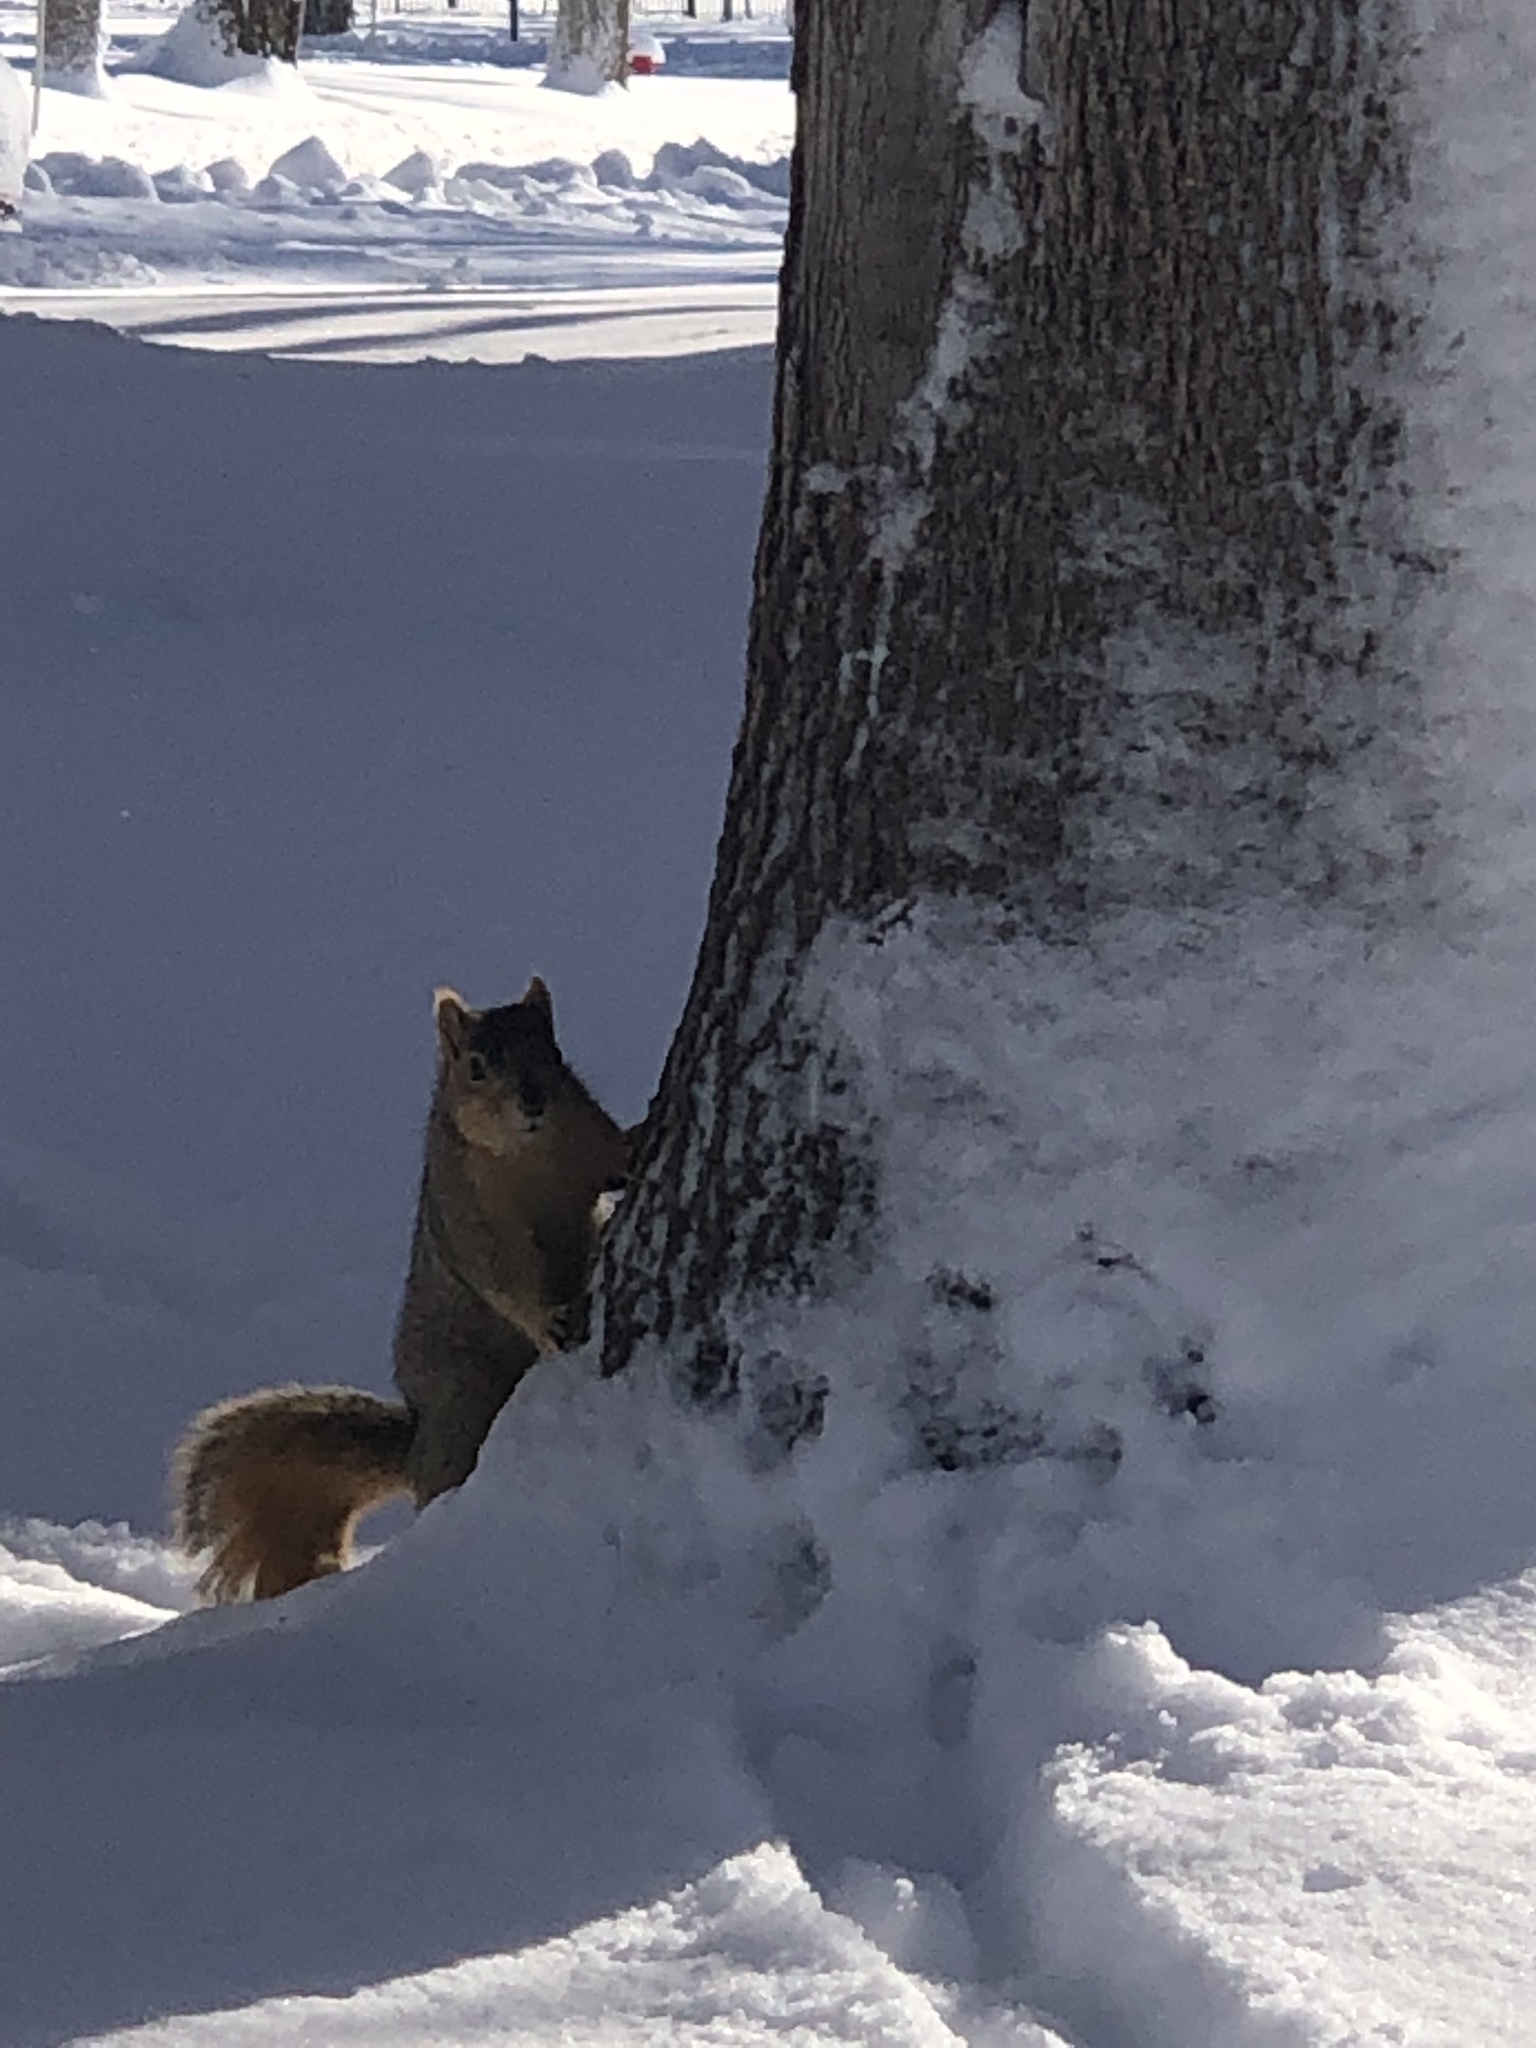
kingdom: Animalia
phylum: Chordata
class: Mammalia
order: Rodentia
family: Sciuridae
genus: Sciurus
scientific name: Sciurus niger
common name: Fox squirrel
